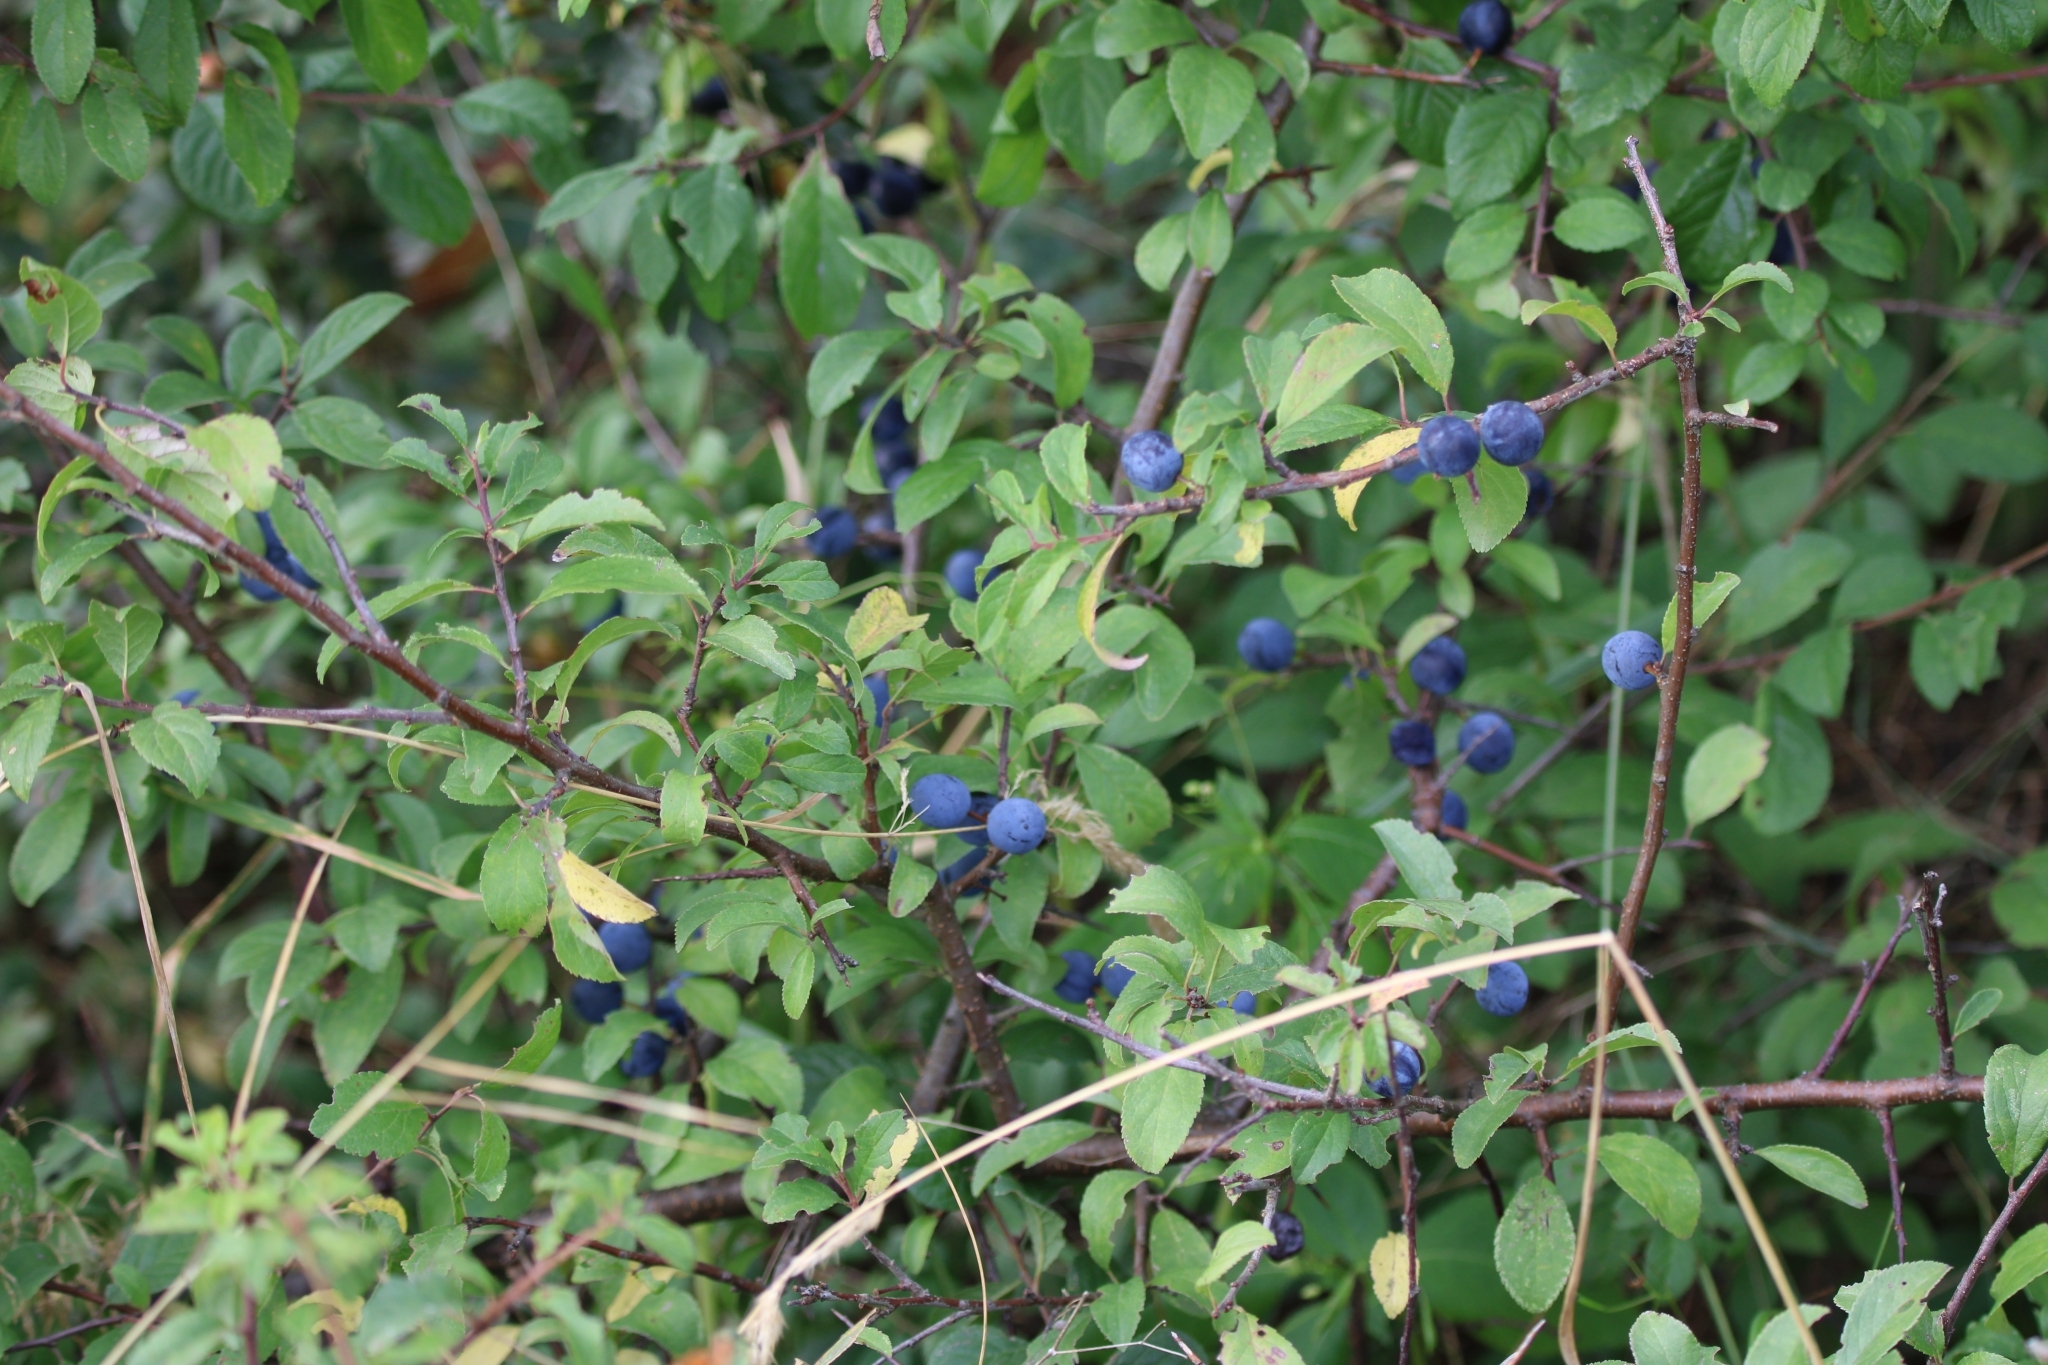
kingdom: Plantae
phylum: Tracheophyta
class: Magnoliopsida
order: Rosales
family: Rosaceae
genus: Prunus
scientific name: Prunus spinosa
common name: Blackthorn
